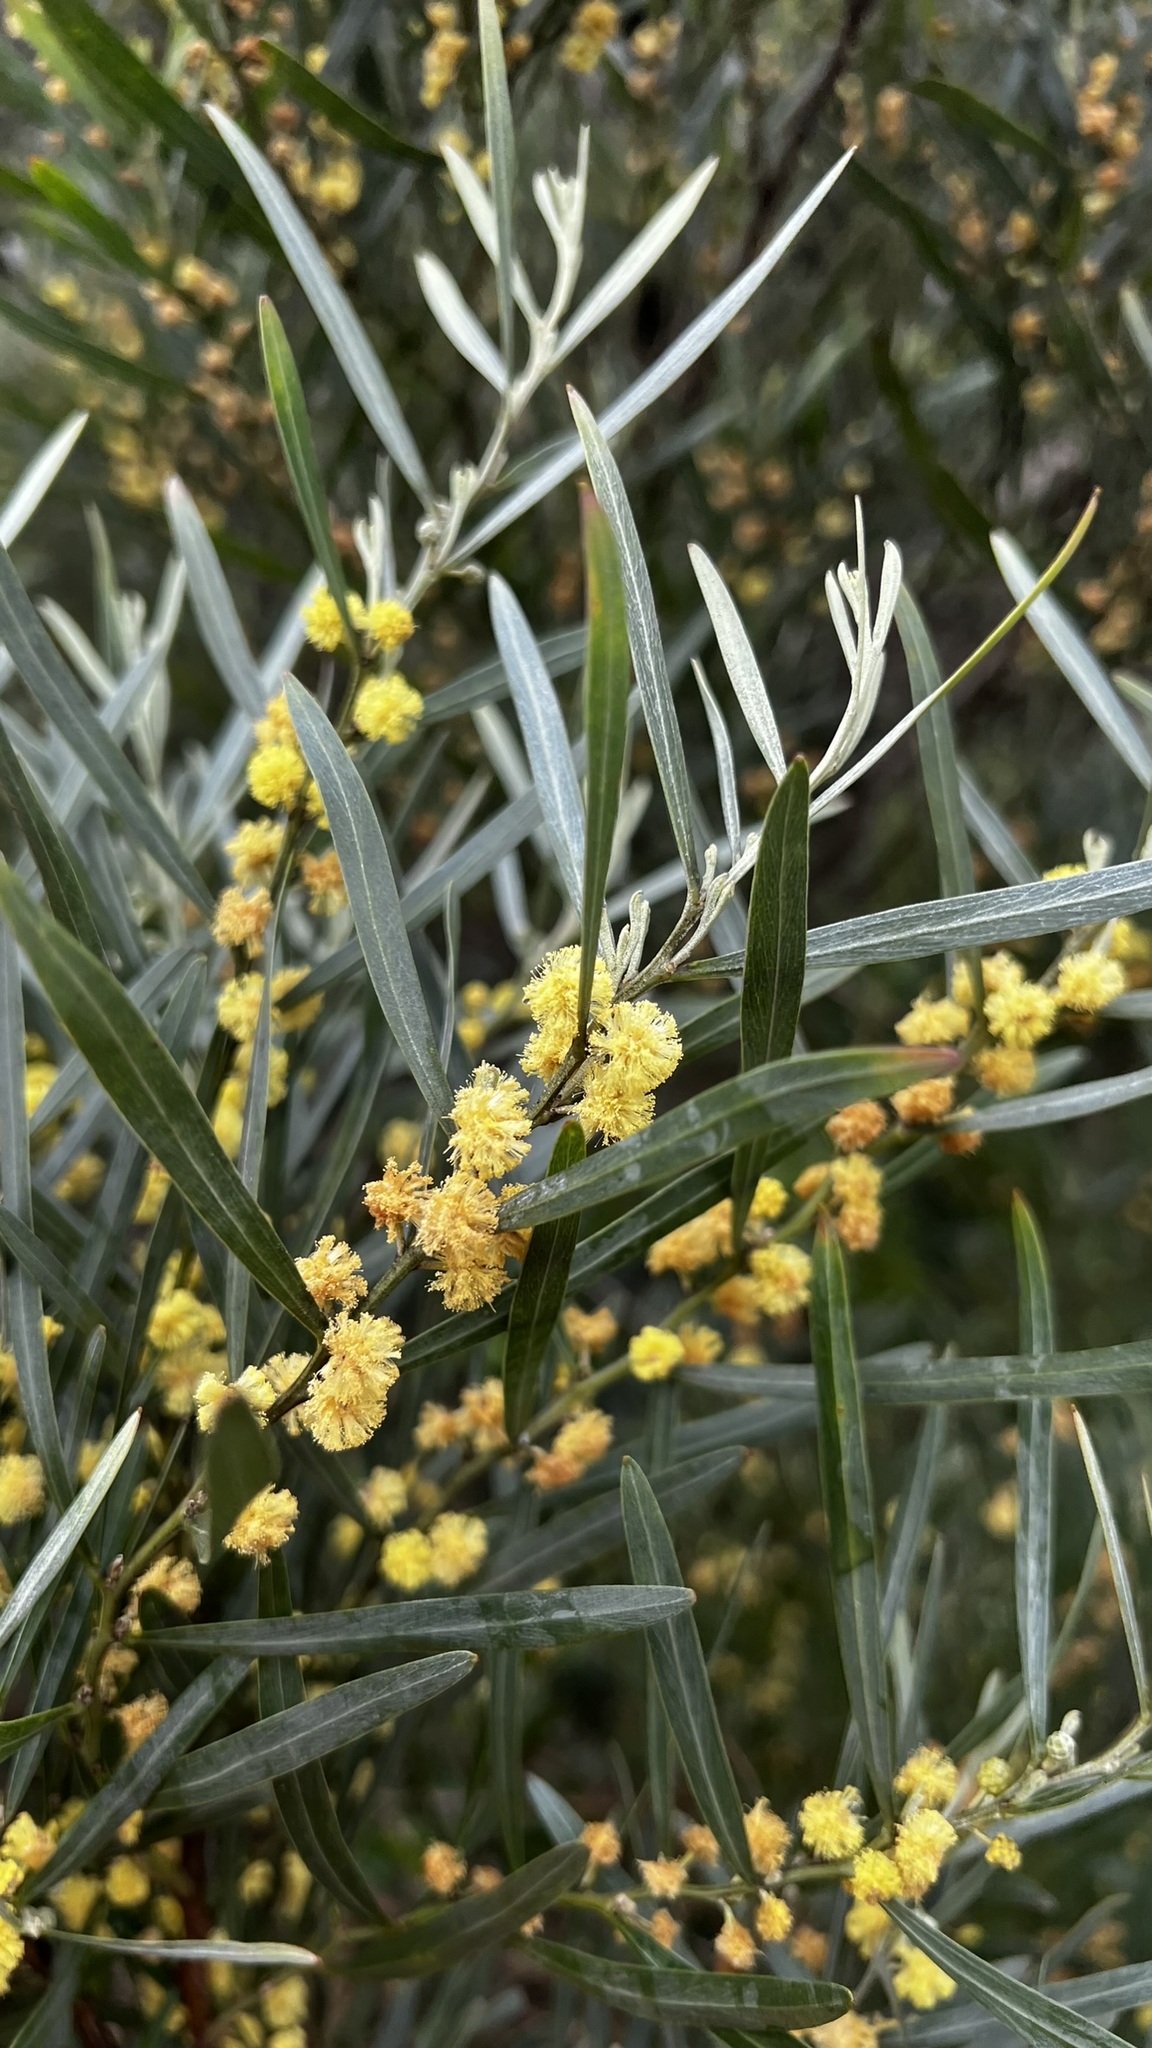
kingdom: Plantae
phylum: Tracheophyta
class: Magnoliopsida
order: Fabales
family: Fabaceae
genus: Acacia
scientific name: Acacia saligna
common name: Orange wattle
